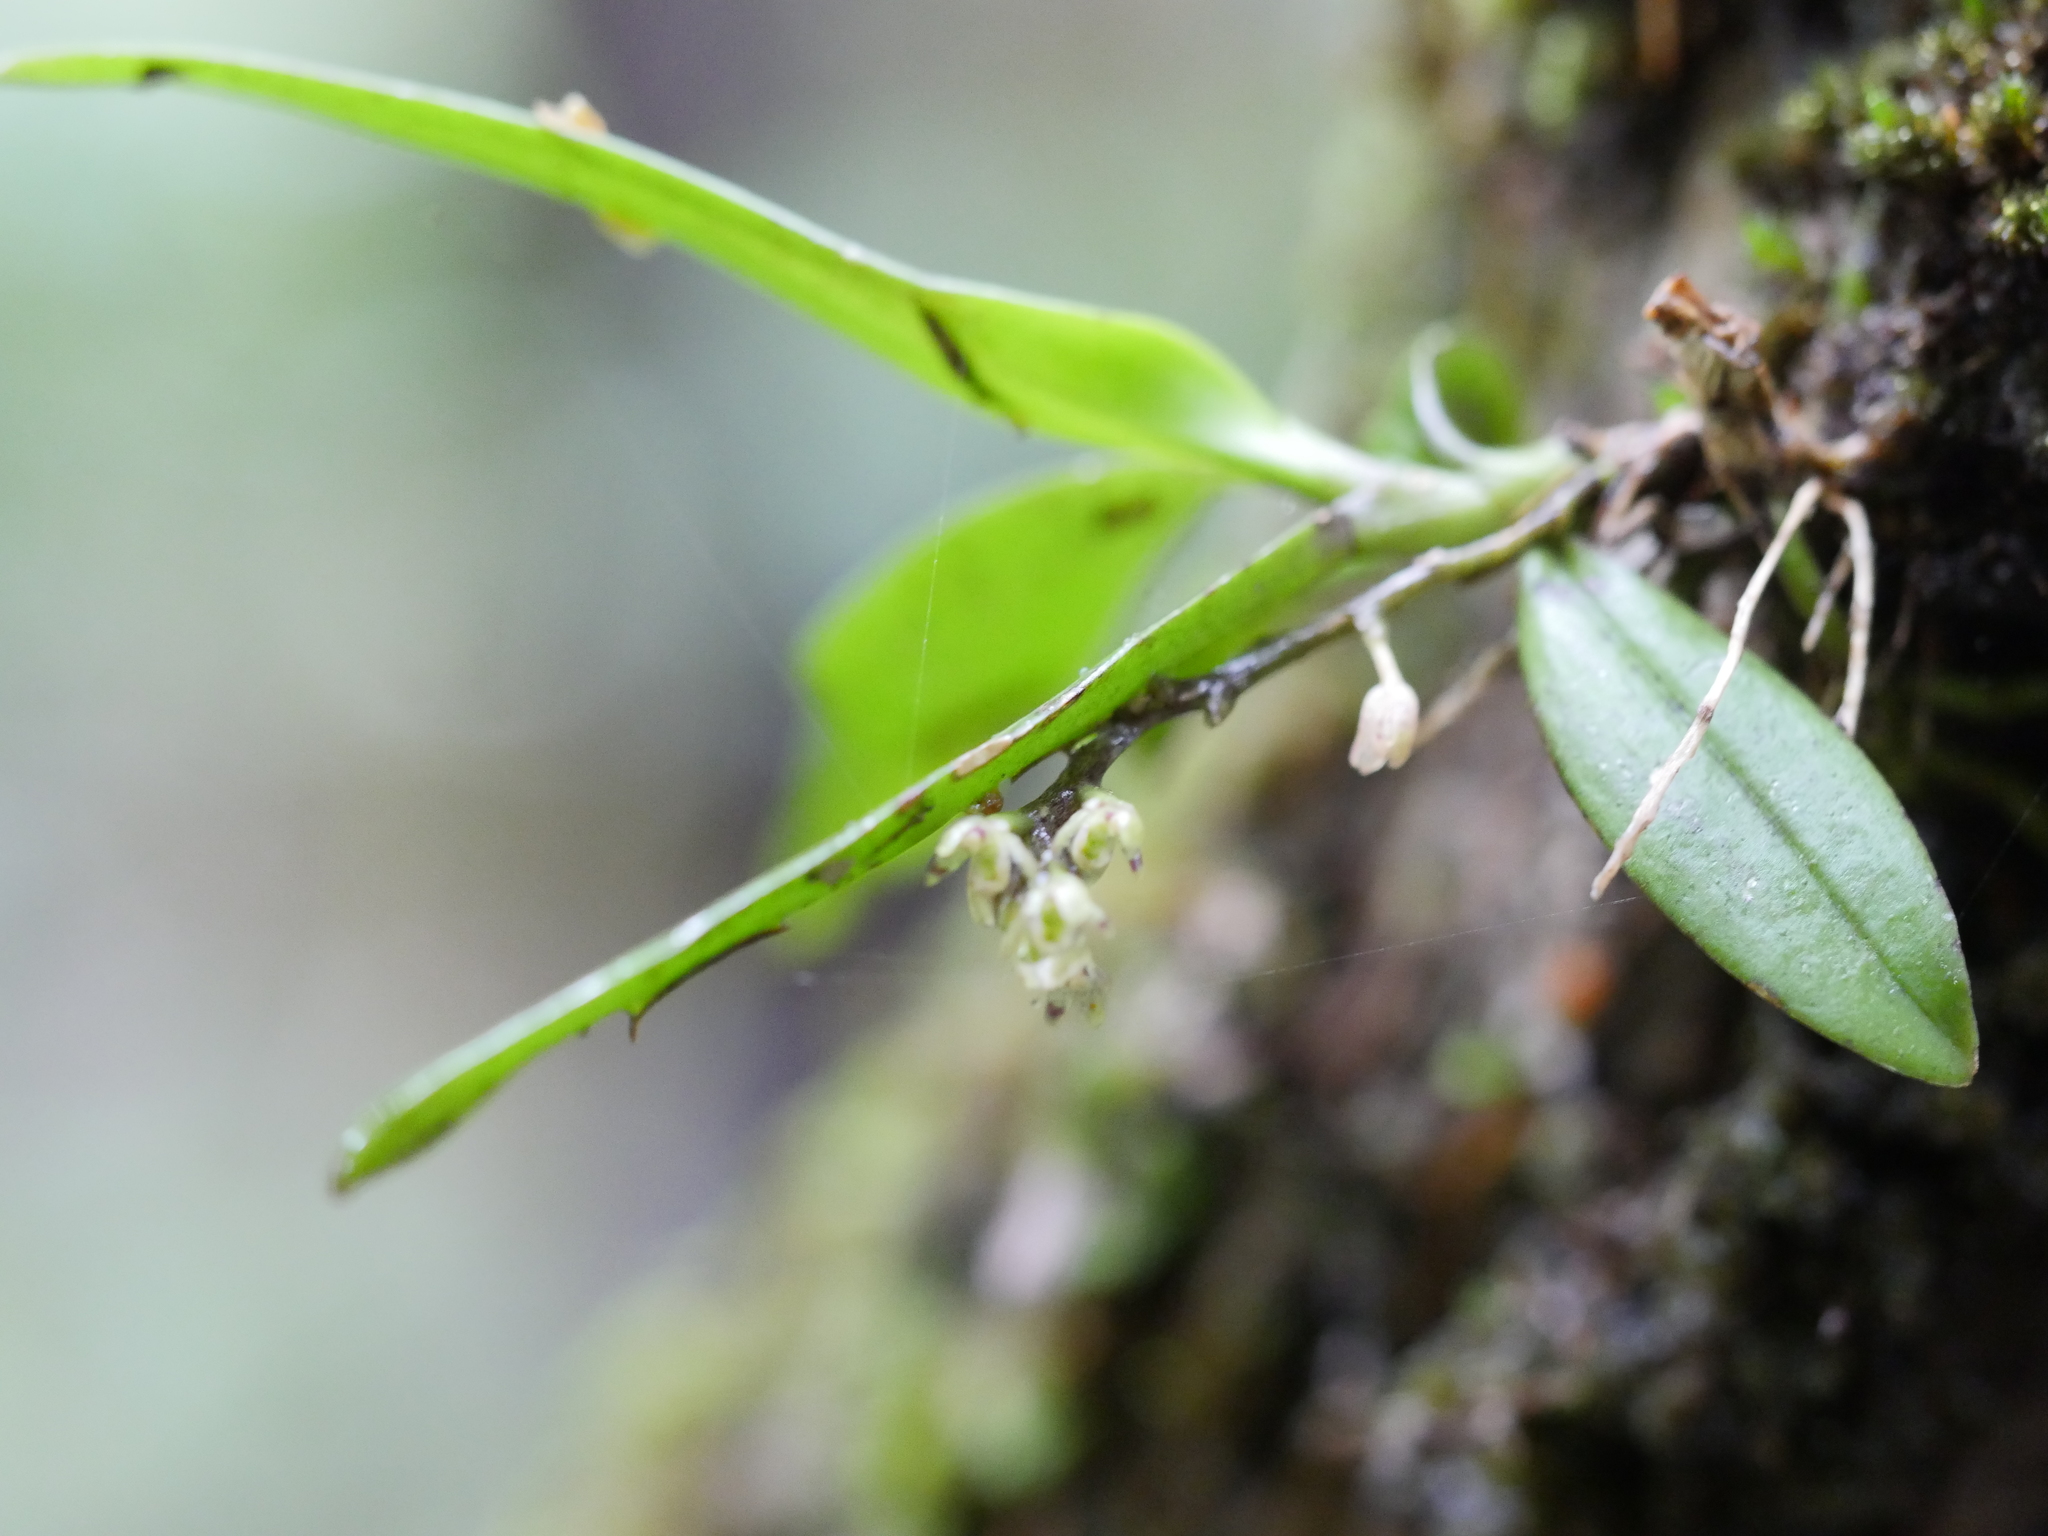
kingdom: Plantae
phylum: Tracheophyta
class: Liliopsida
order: Asparagales
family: Orchidaceae
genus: Drymoanthus
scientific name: Drymoanthus adversus
